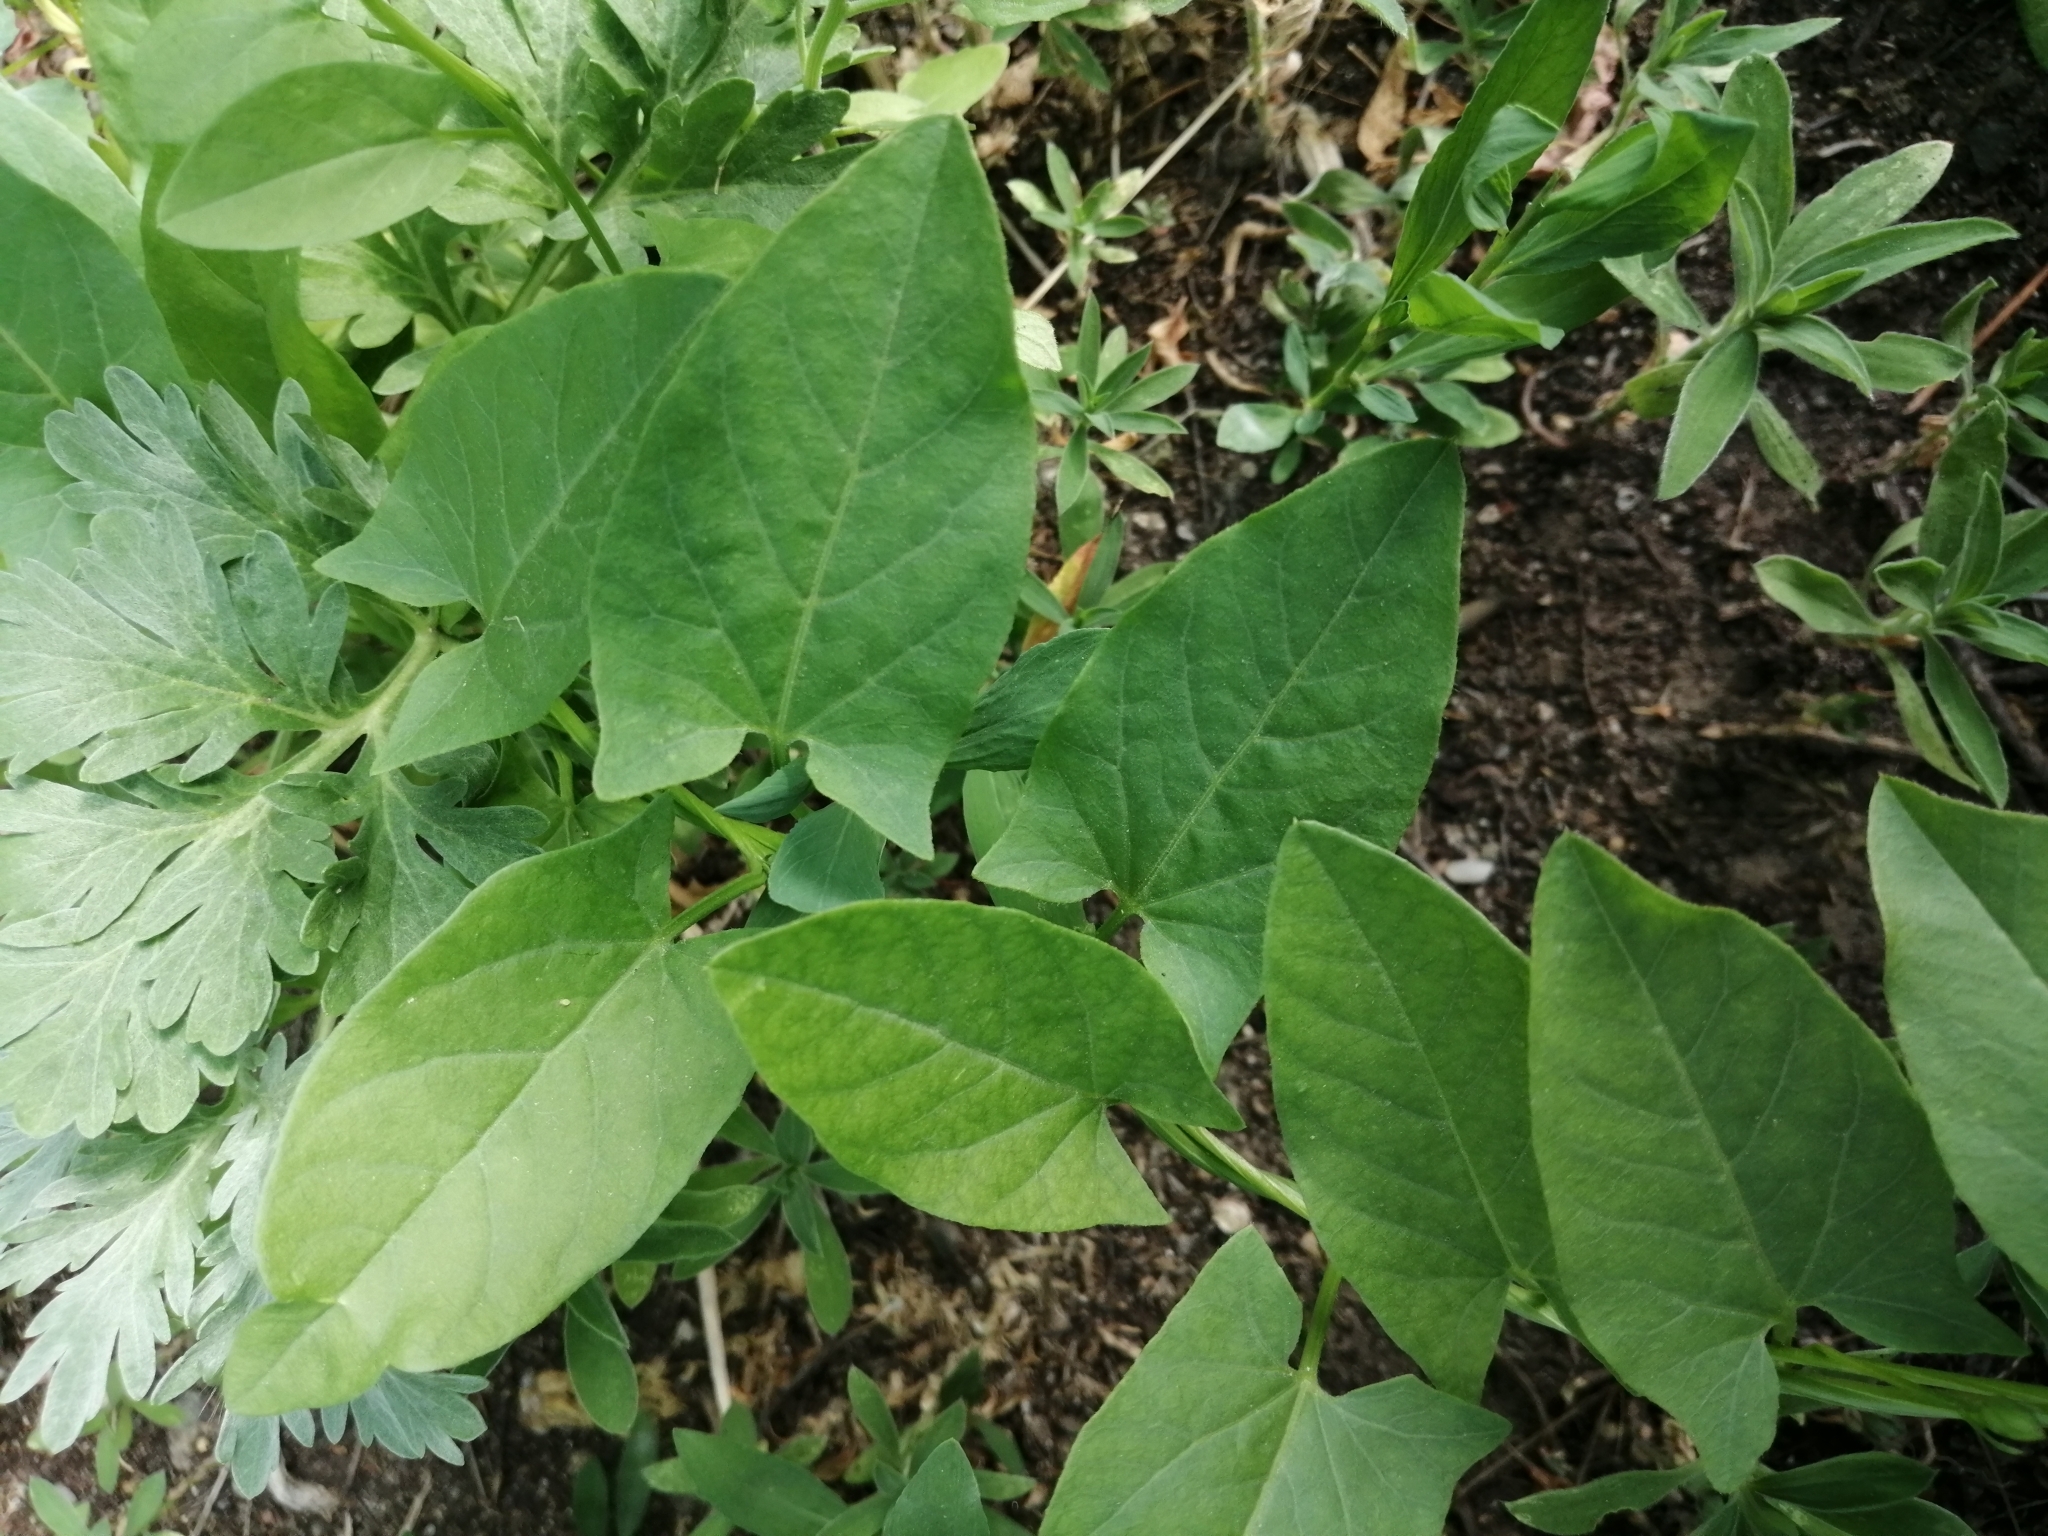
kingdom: Plantae
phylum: Tracheophyta
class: Magnoliopsida
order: Solanales
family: Convolvulaceae
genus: Convolvulus
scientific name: Convolvulus arvensis
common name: Field bindweed
